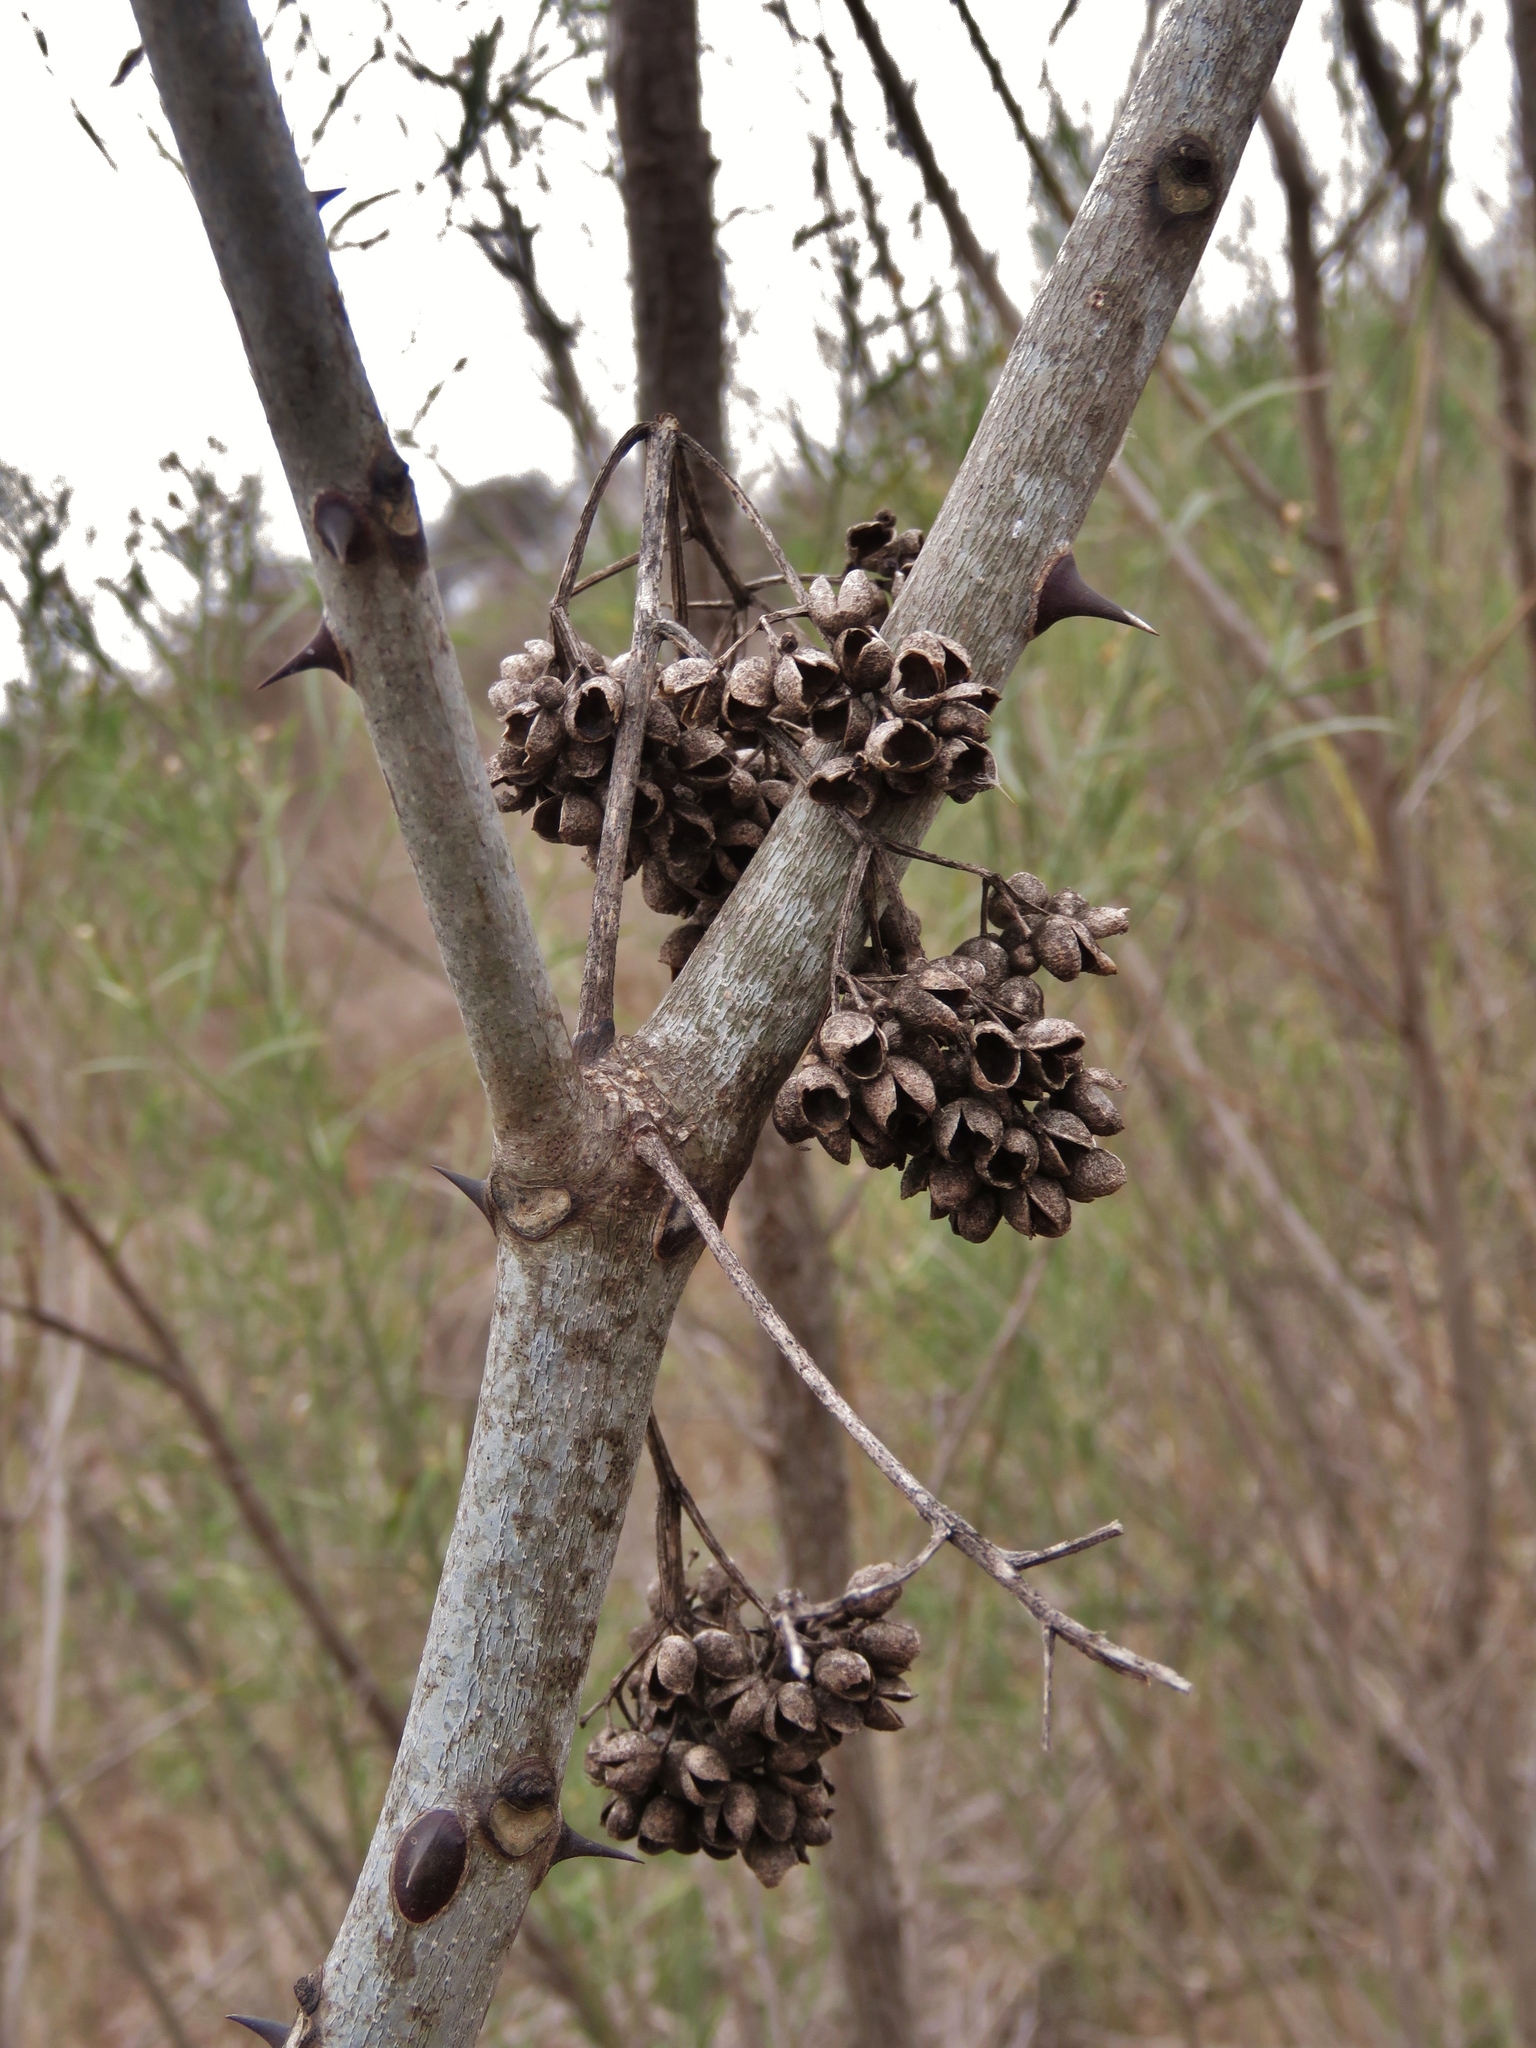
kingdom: Plantae
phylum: Tracheophyta
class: Magnoliopsida
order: Sapindales
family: Rutaceae
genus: Zanthoxylum
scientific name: Zanthoxylum clava-herculis
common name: Hercules'-club
